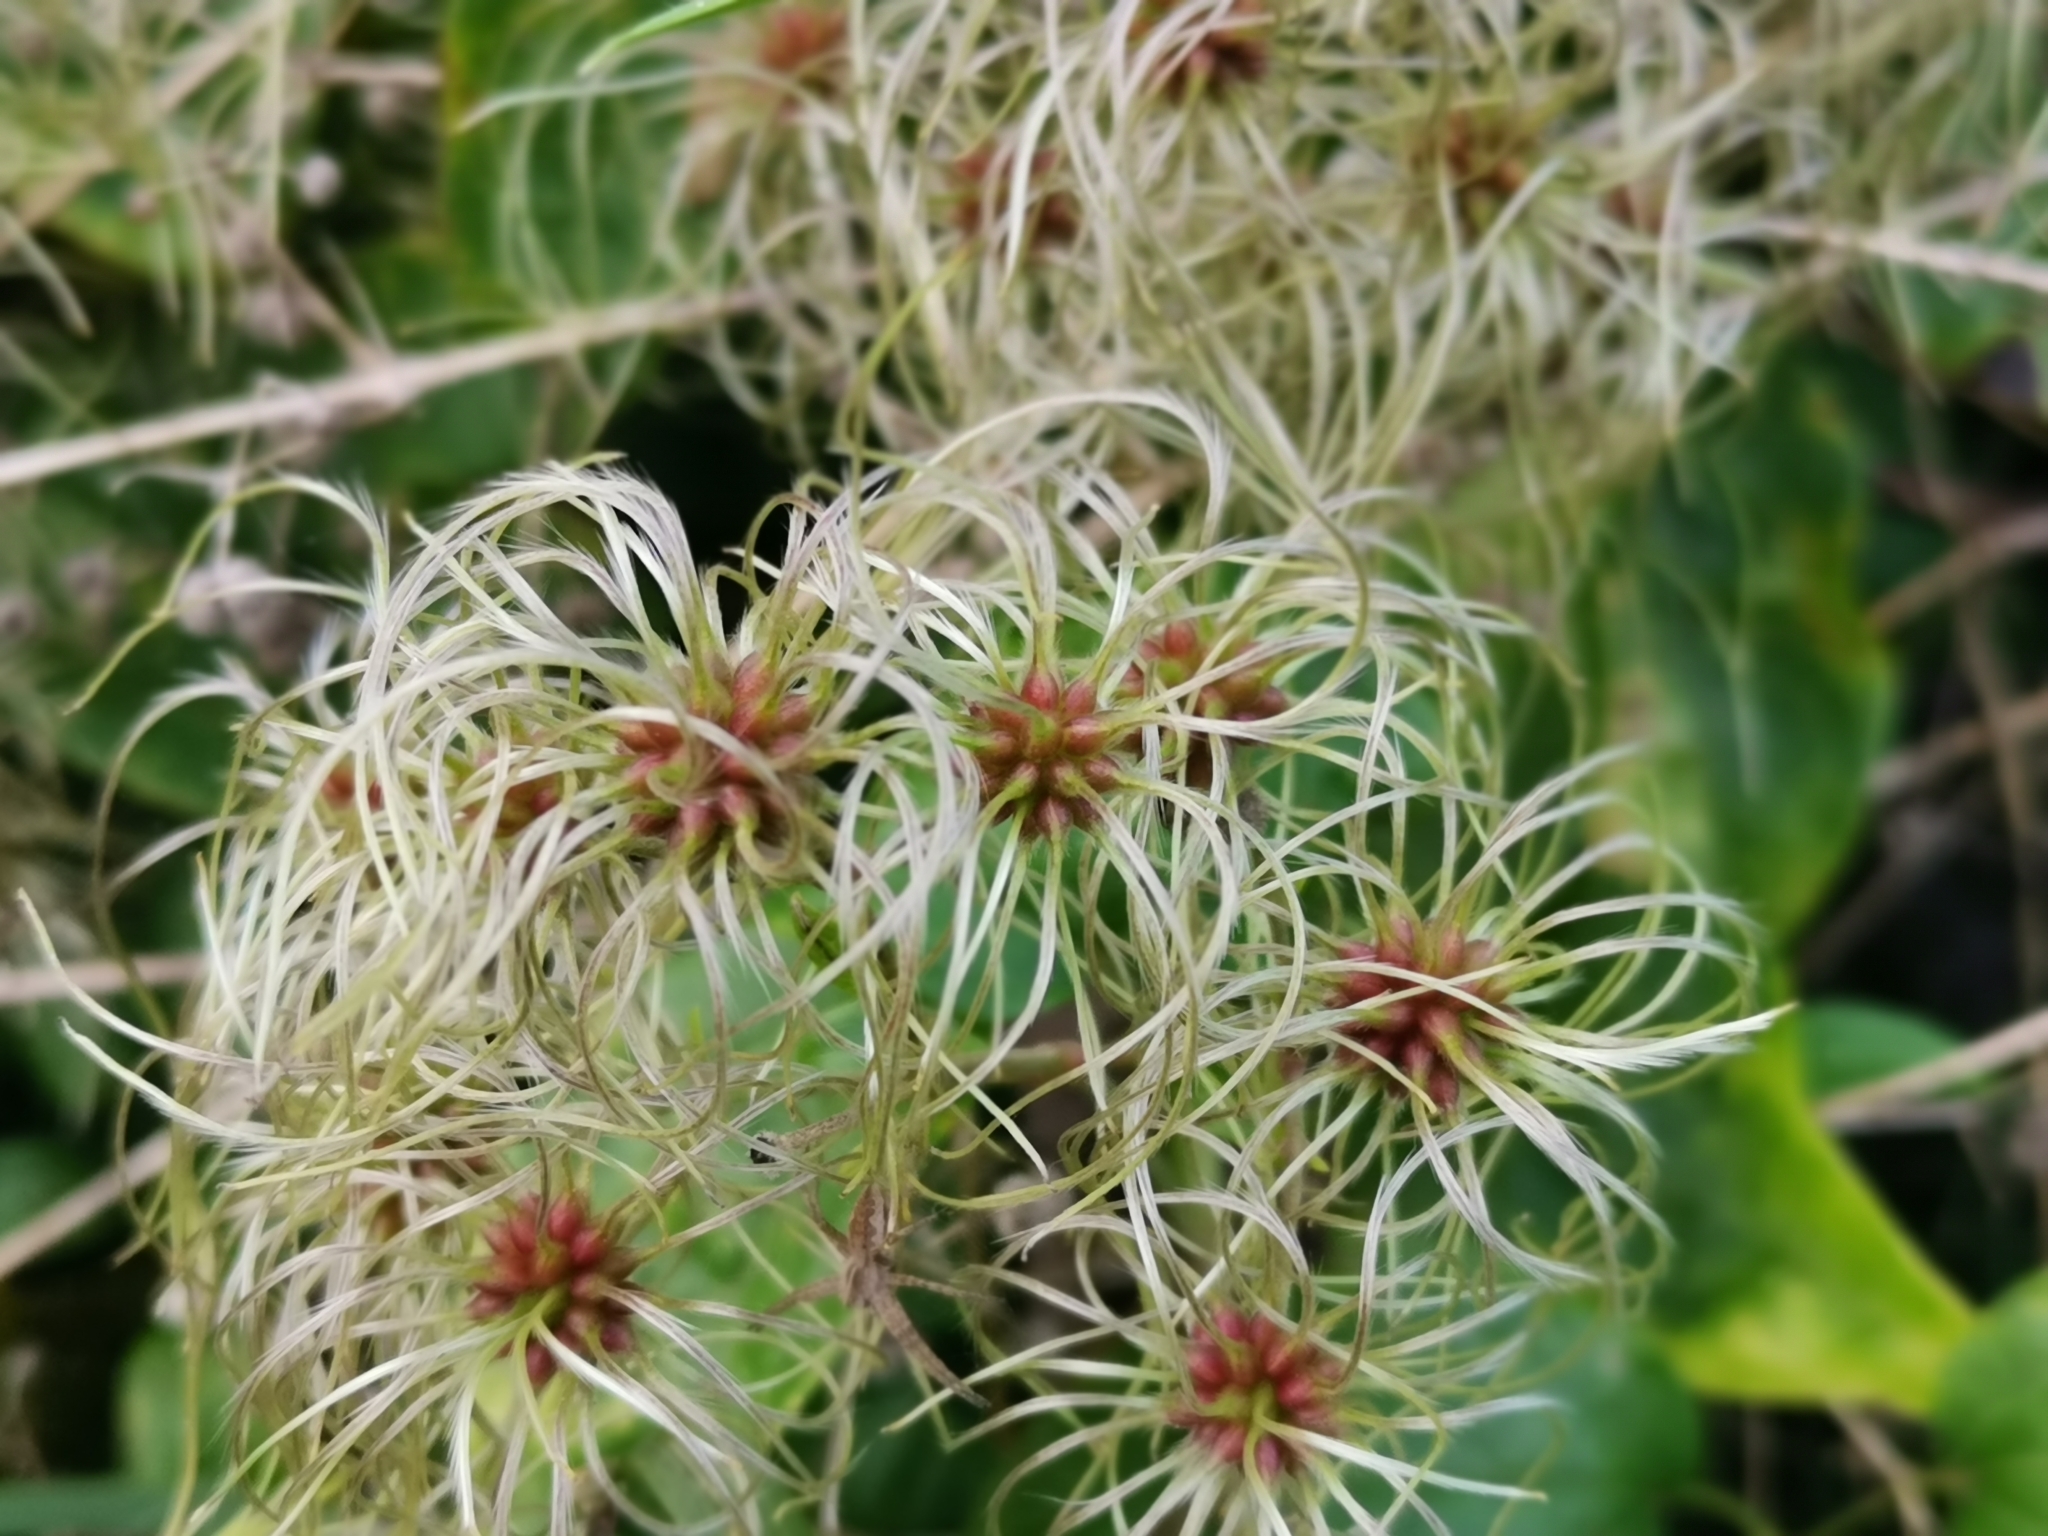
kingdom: Plantae
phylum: Tracheophyta
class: Magnoliopsida
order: Ranunculales
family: Ranunculaceae
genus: Clematis
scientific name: Clematis vitalba
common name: Evergreen clematis
